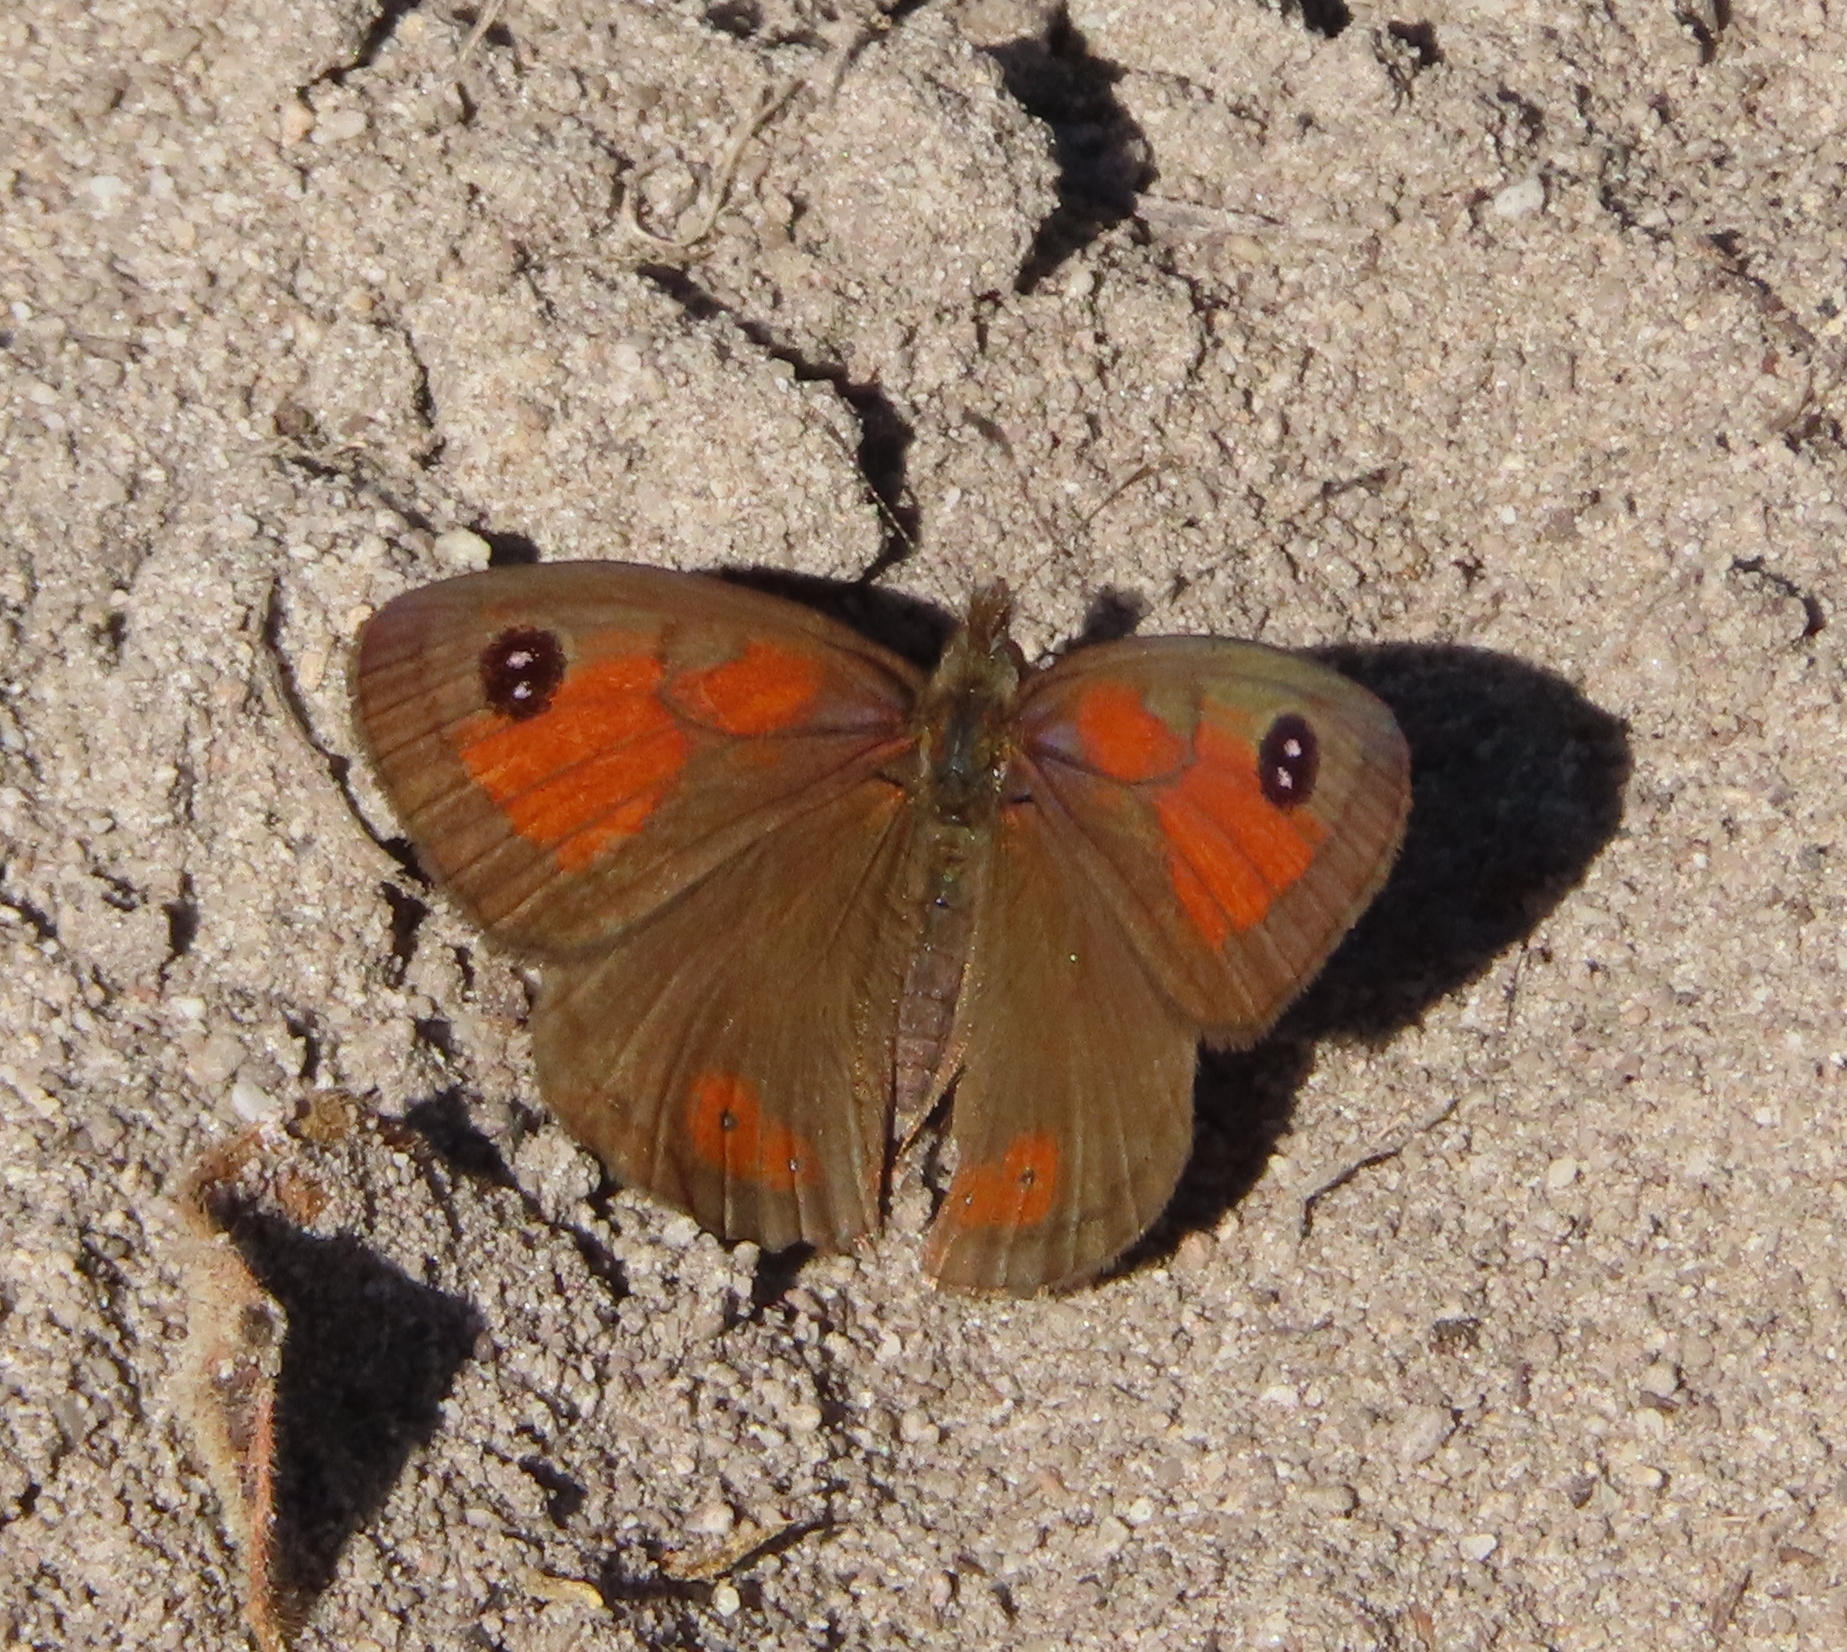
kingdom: Animalia
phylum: Arthropoda
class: Insecta
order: Lepidoptera
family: Nymphalidae
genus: Pseudonympha
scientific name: Pseudonympha magus
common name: Silver-bottom brown
